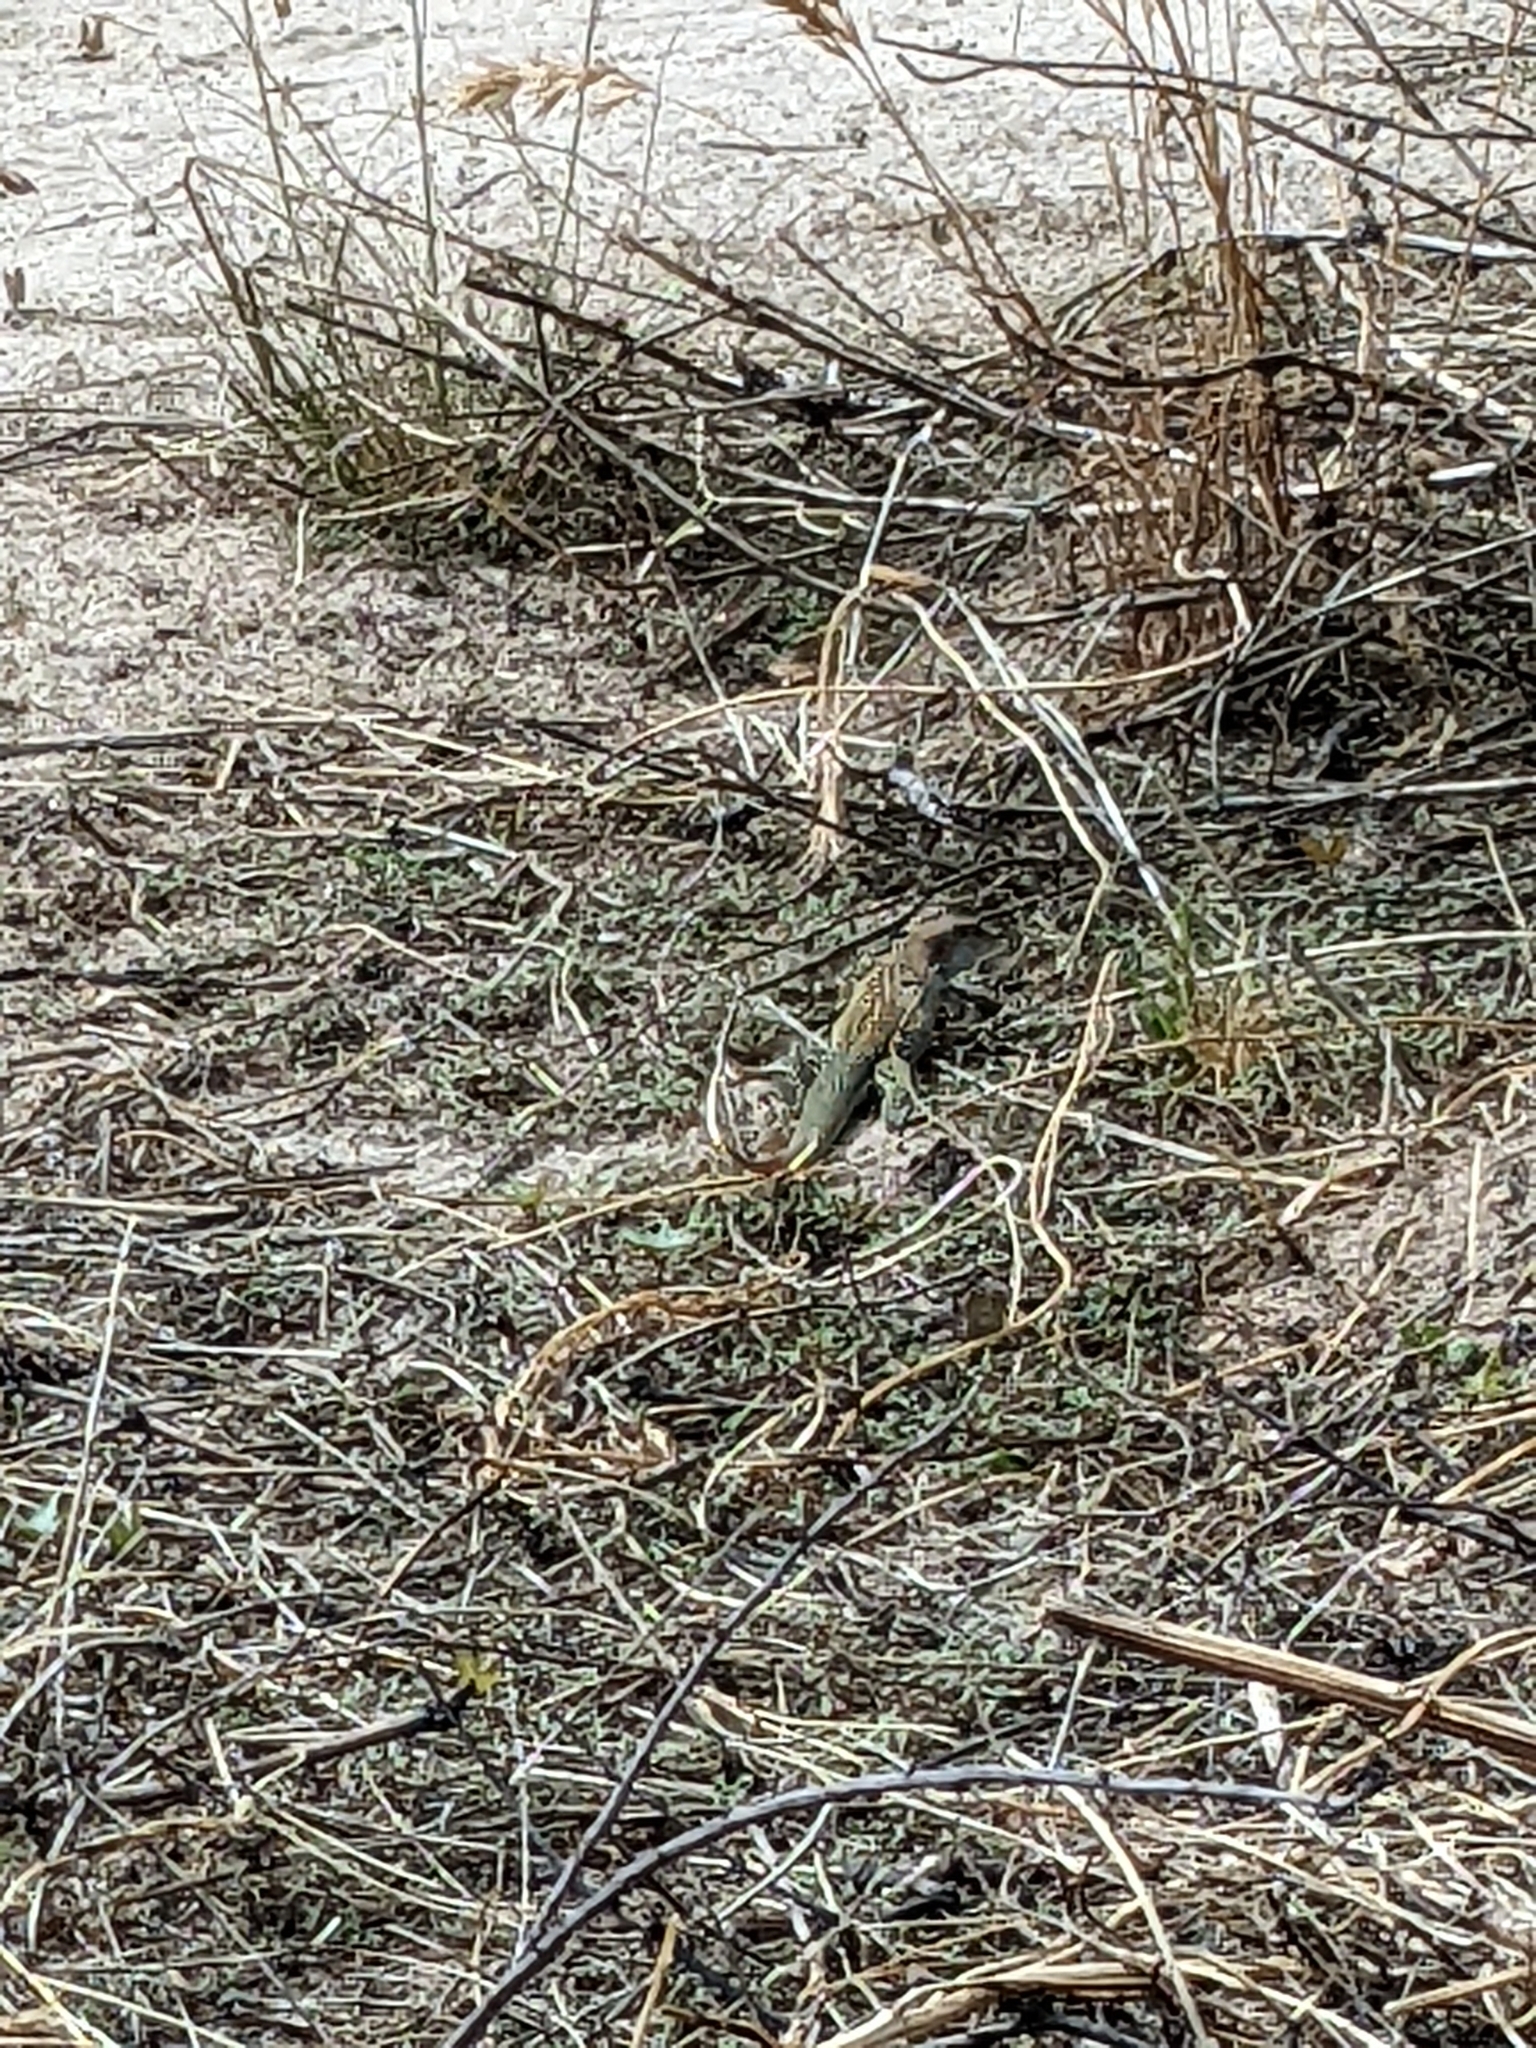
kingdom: Animalia
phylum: Chordata
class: Squamata
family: Teiidae
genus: Aspidoscelis
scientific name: Aspidoscelis stictogrammus
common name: Giant spotted whiptail
